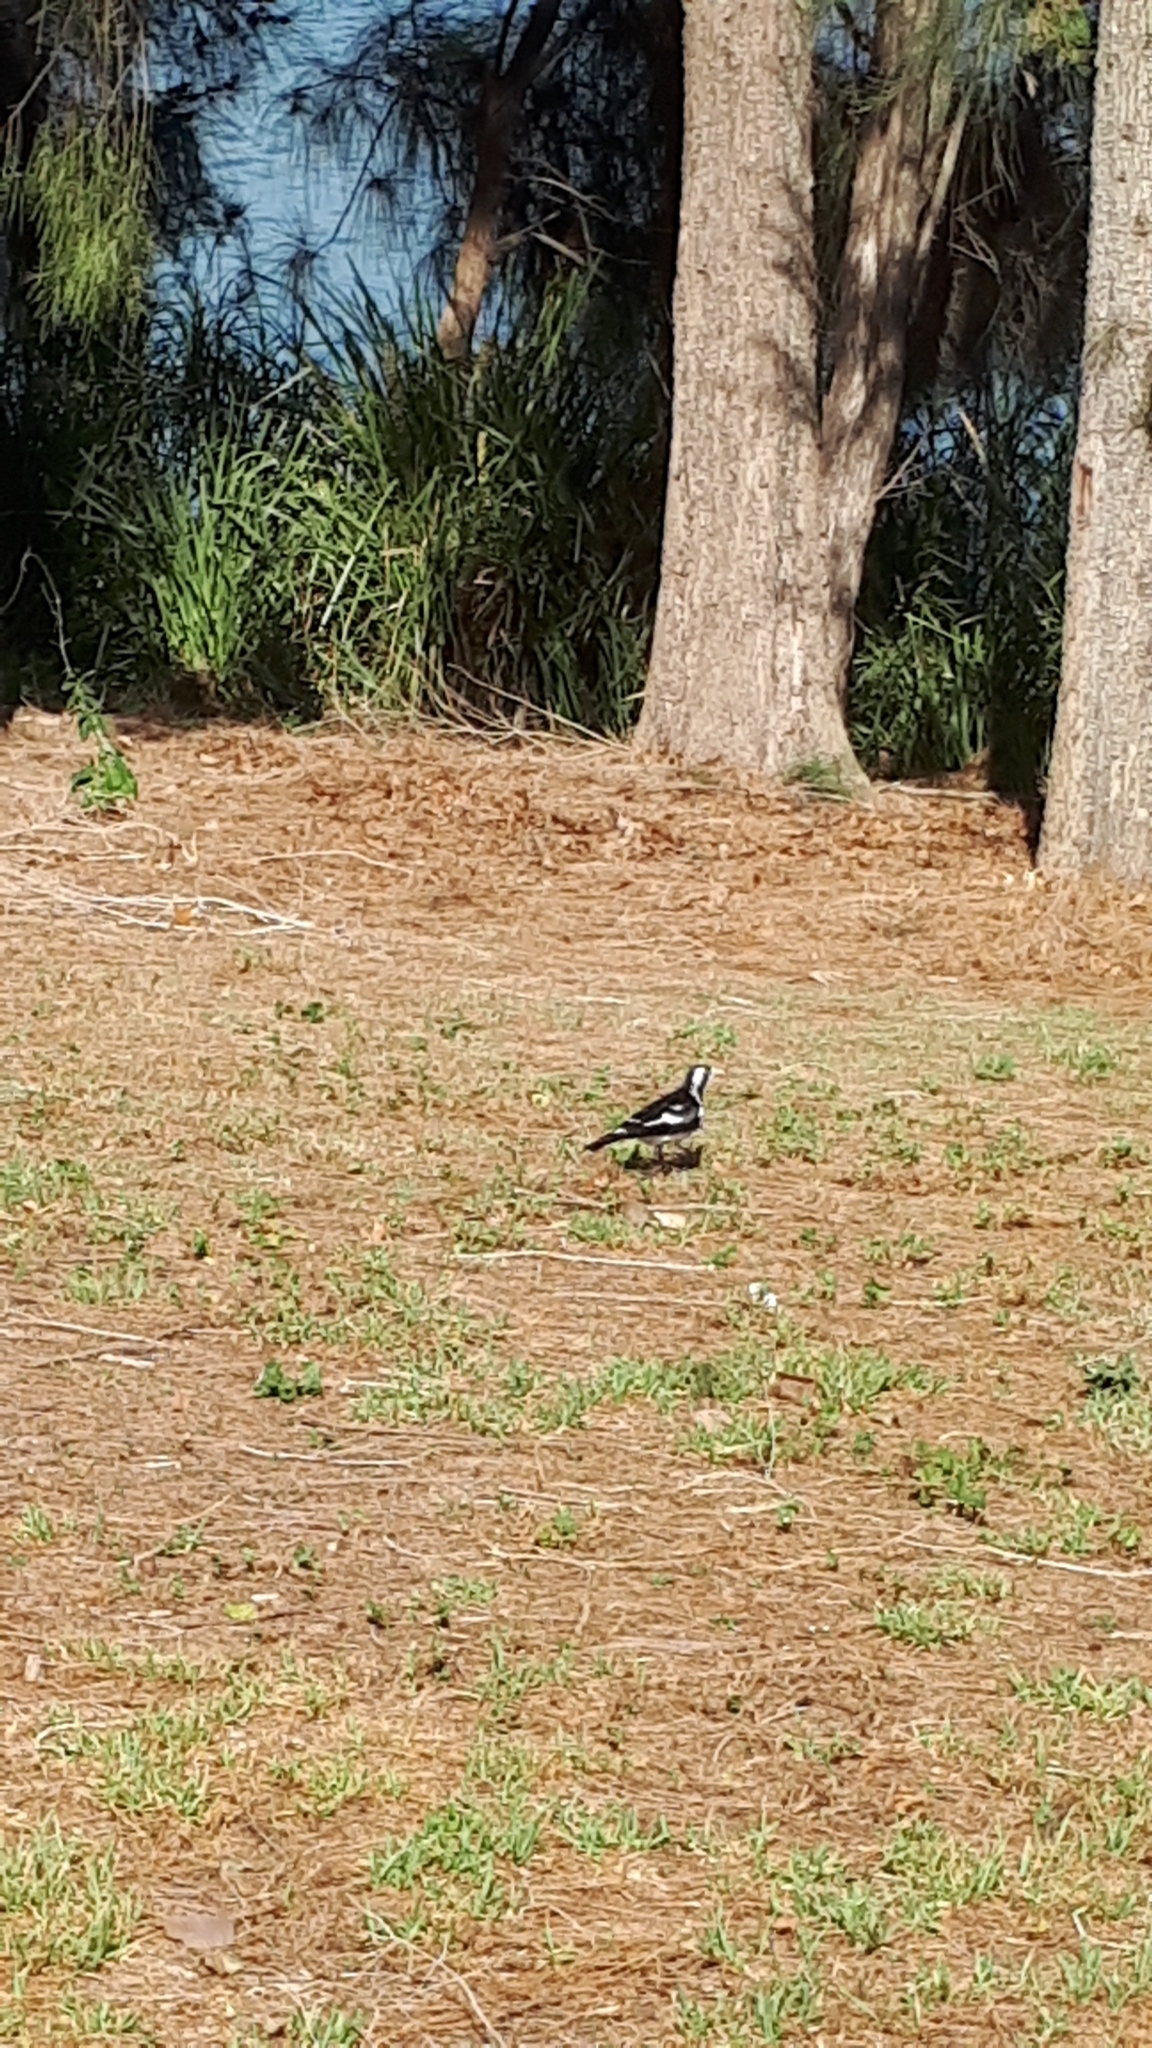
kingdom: Animalia
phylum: Chordata
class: Aves
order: Passeriformes
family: Monarchidae
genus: Grallina
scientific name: Grallina cyanoleuca
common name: Magpie-lark
